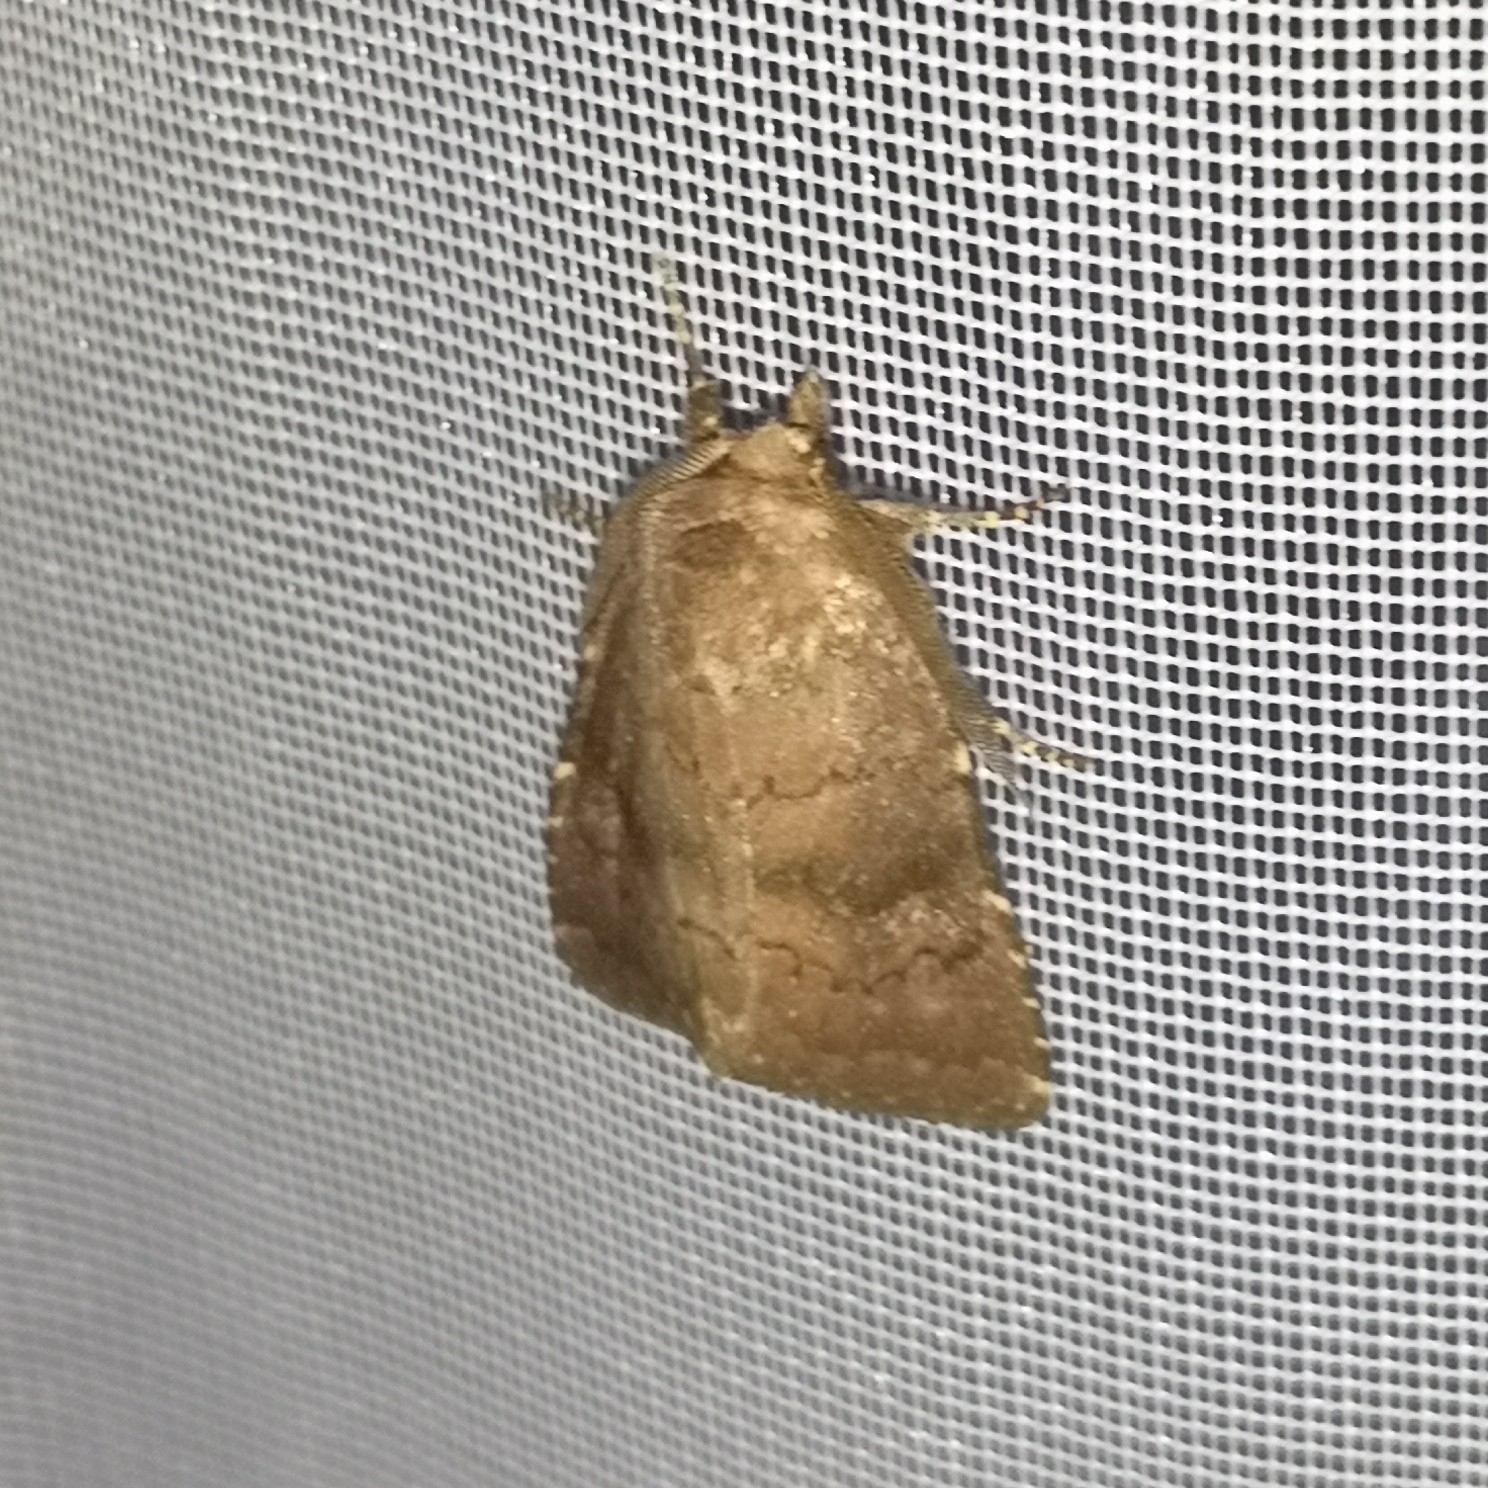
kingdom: Animalia
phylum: Arthropoda
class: Insecta
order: Lepidoptera
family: Noctuidae
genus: Charanyca
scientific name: Charanyca ferruginea
